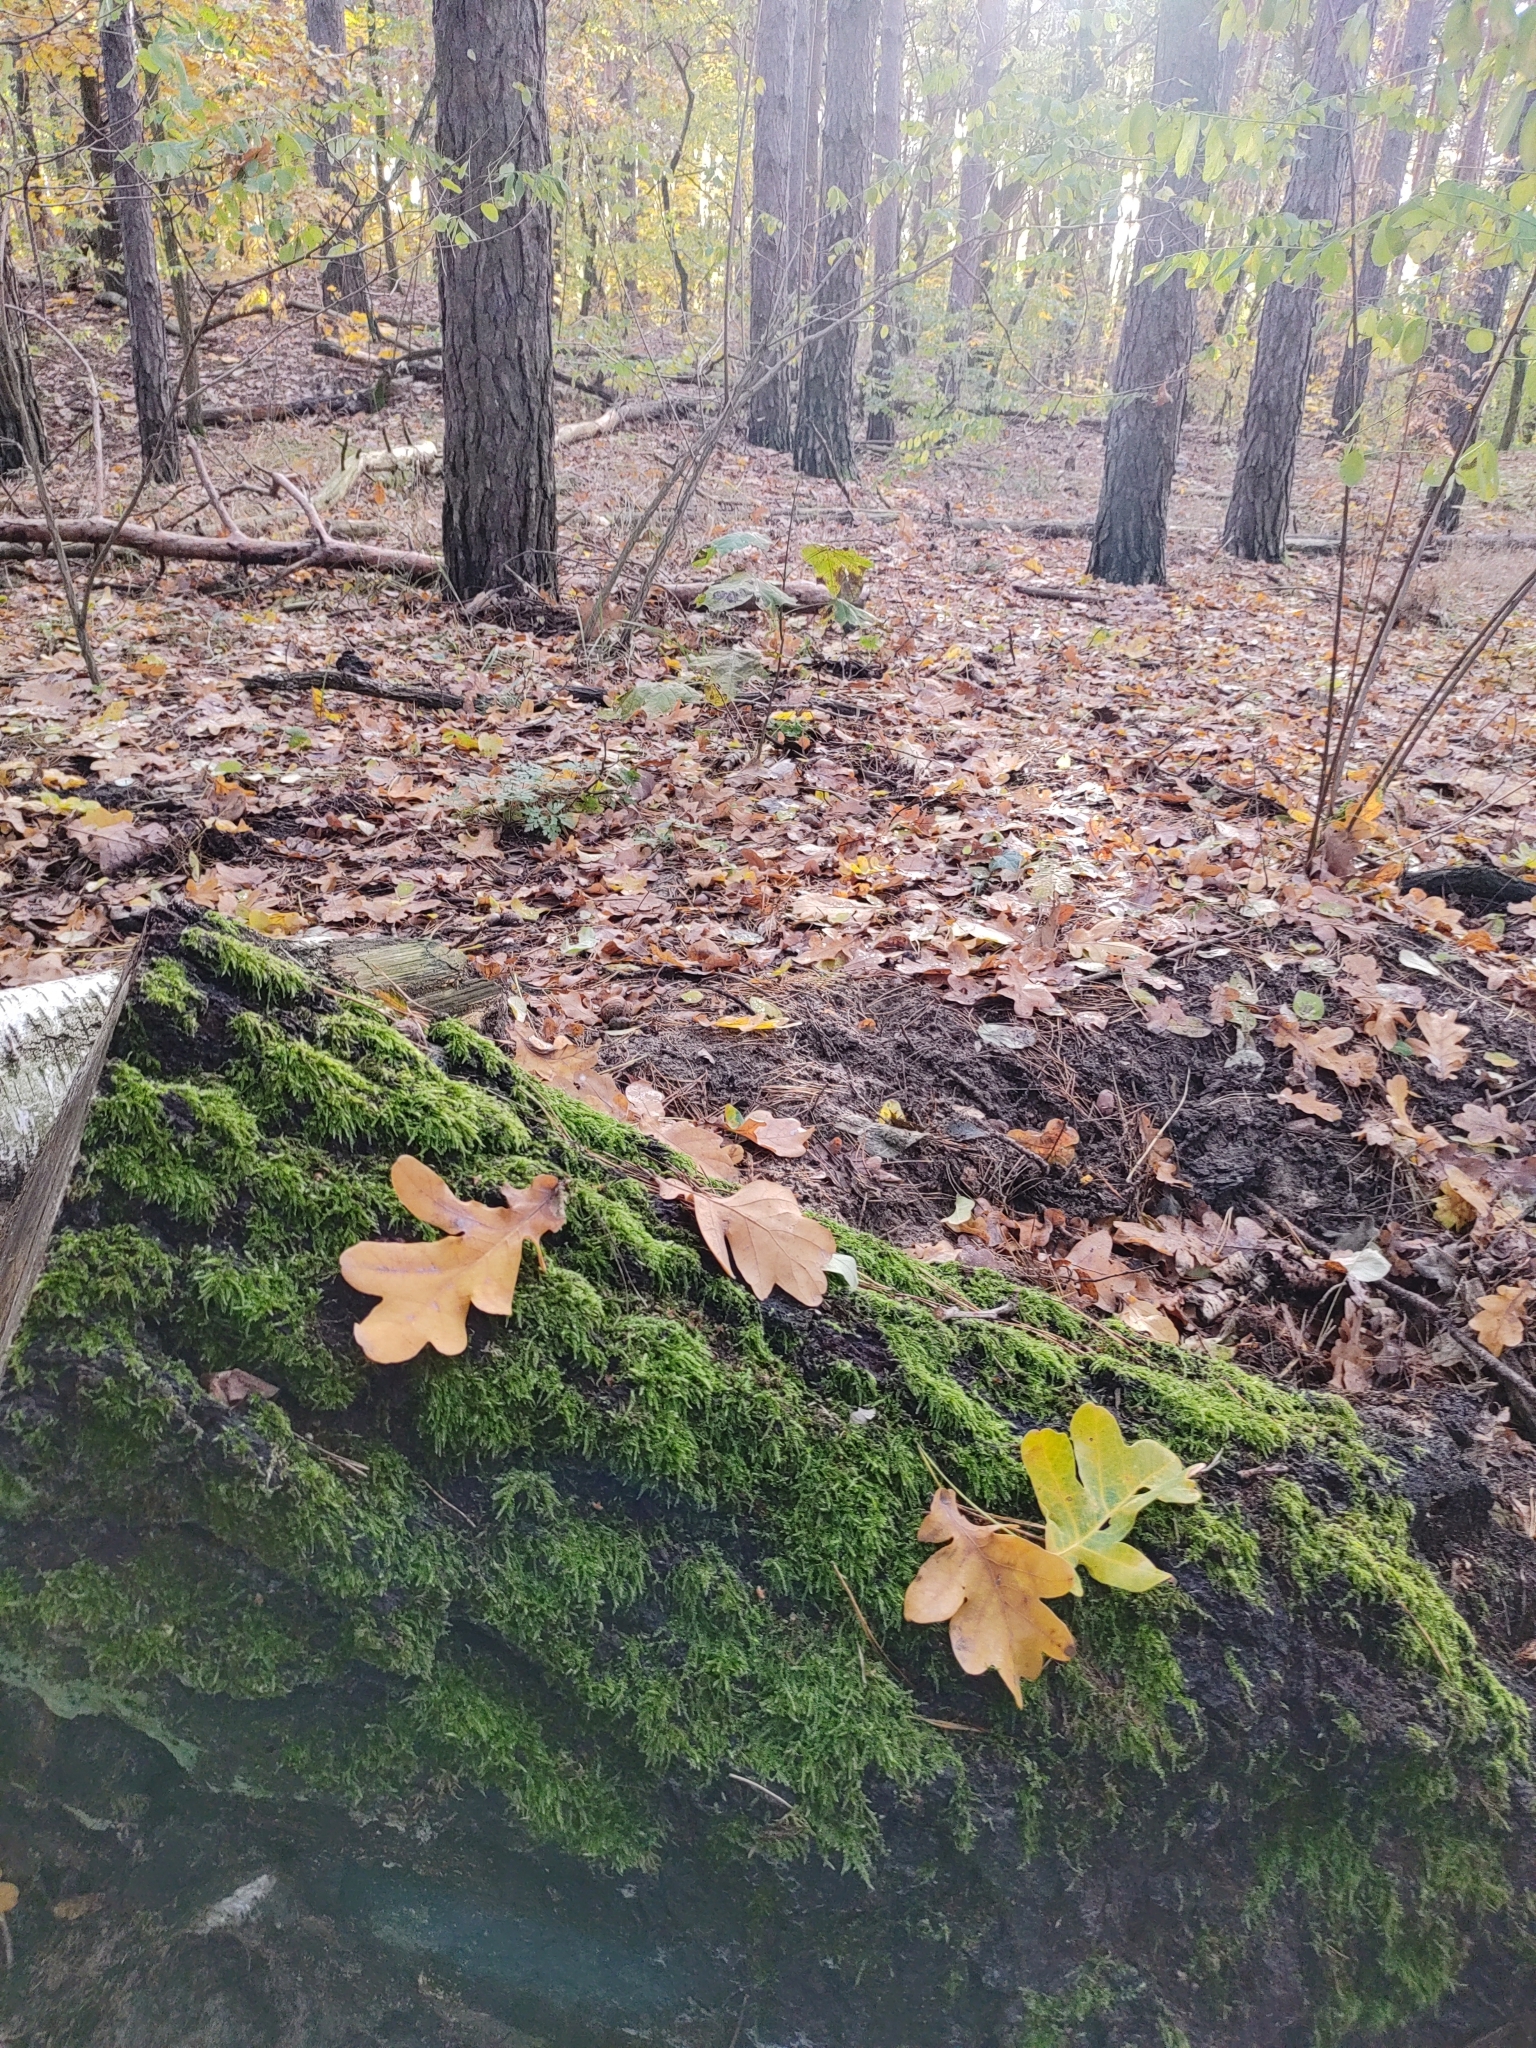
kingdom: Plantae
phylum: Bryophyta
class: Bryopsida
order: Hypnales
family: Hypnaceae
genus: Hypnum
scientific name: Hypnum cupressiforme
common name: Cypress-leaved plait-moss
